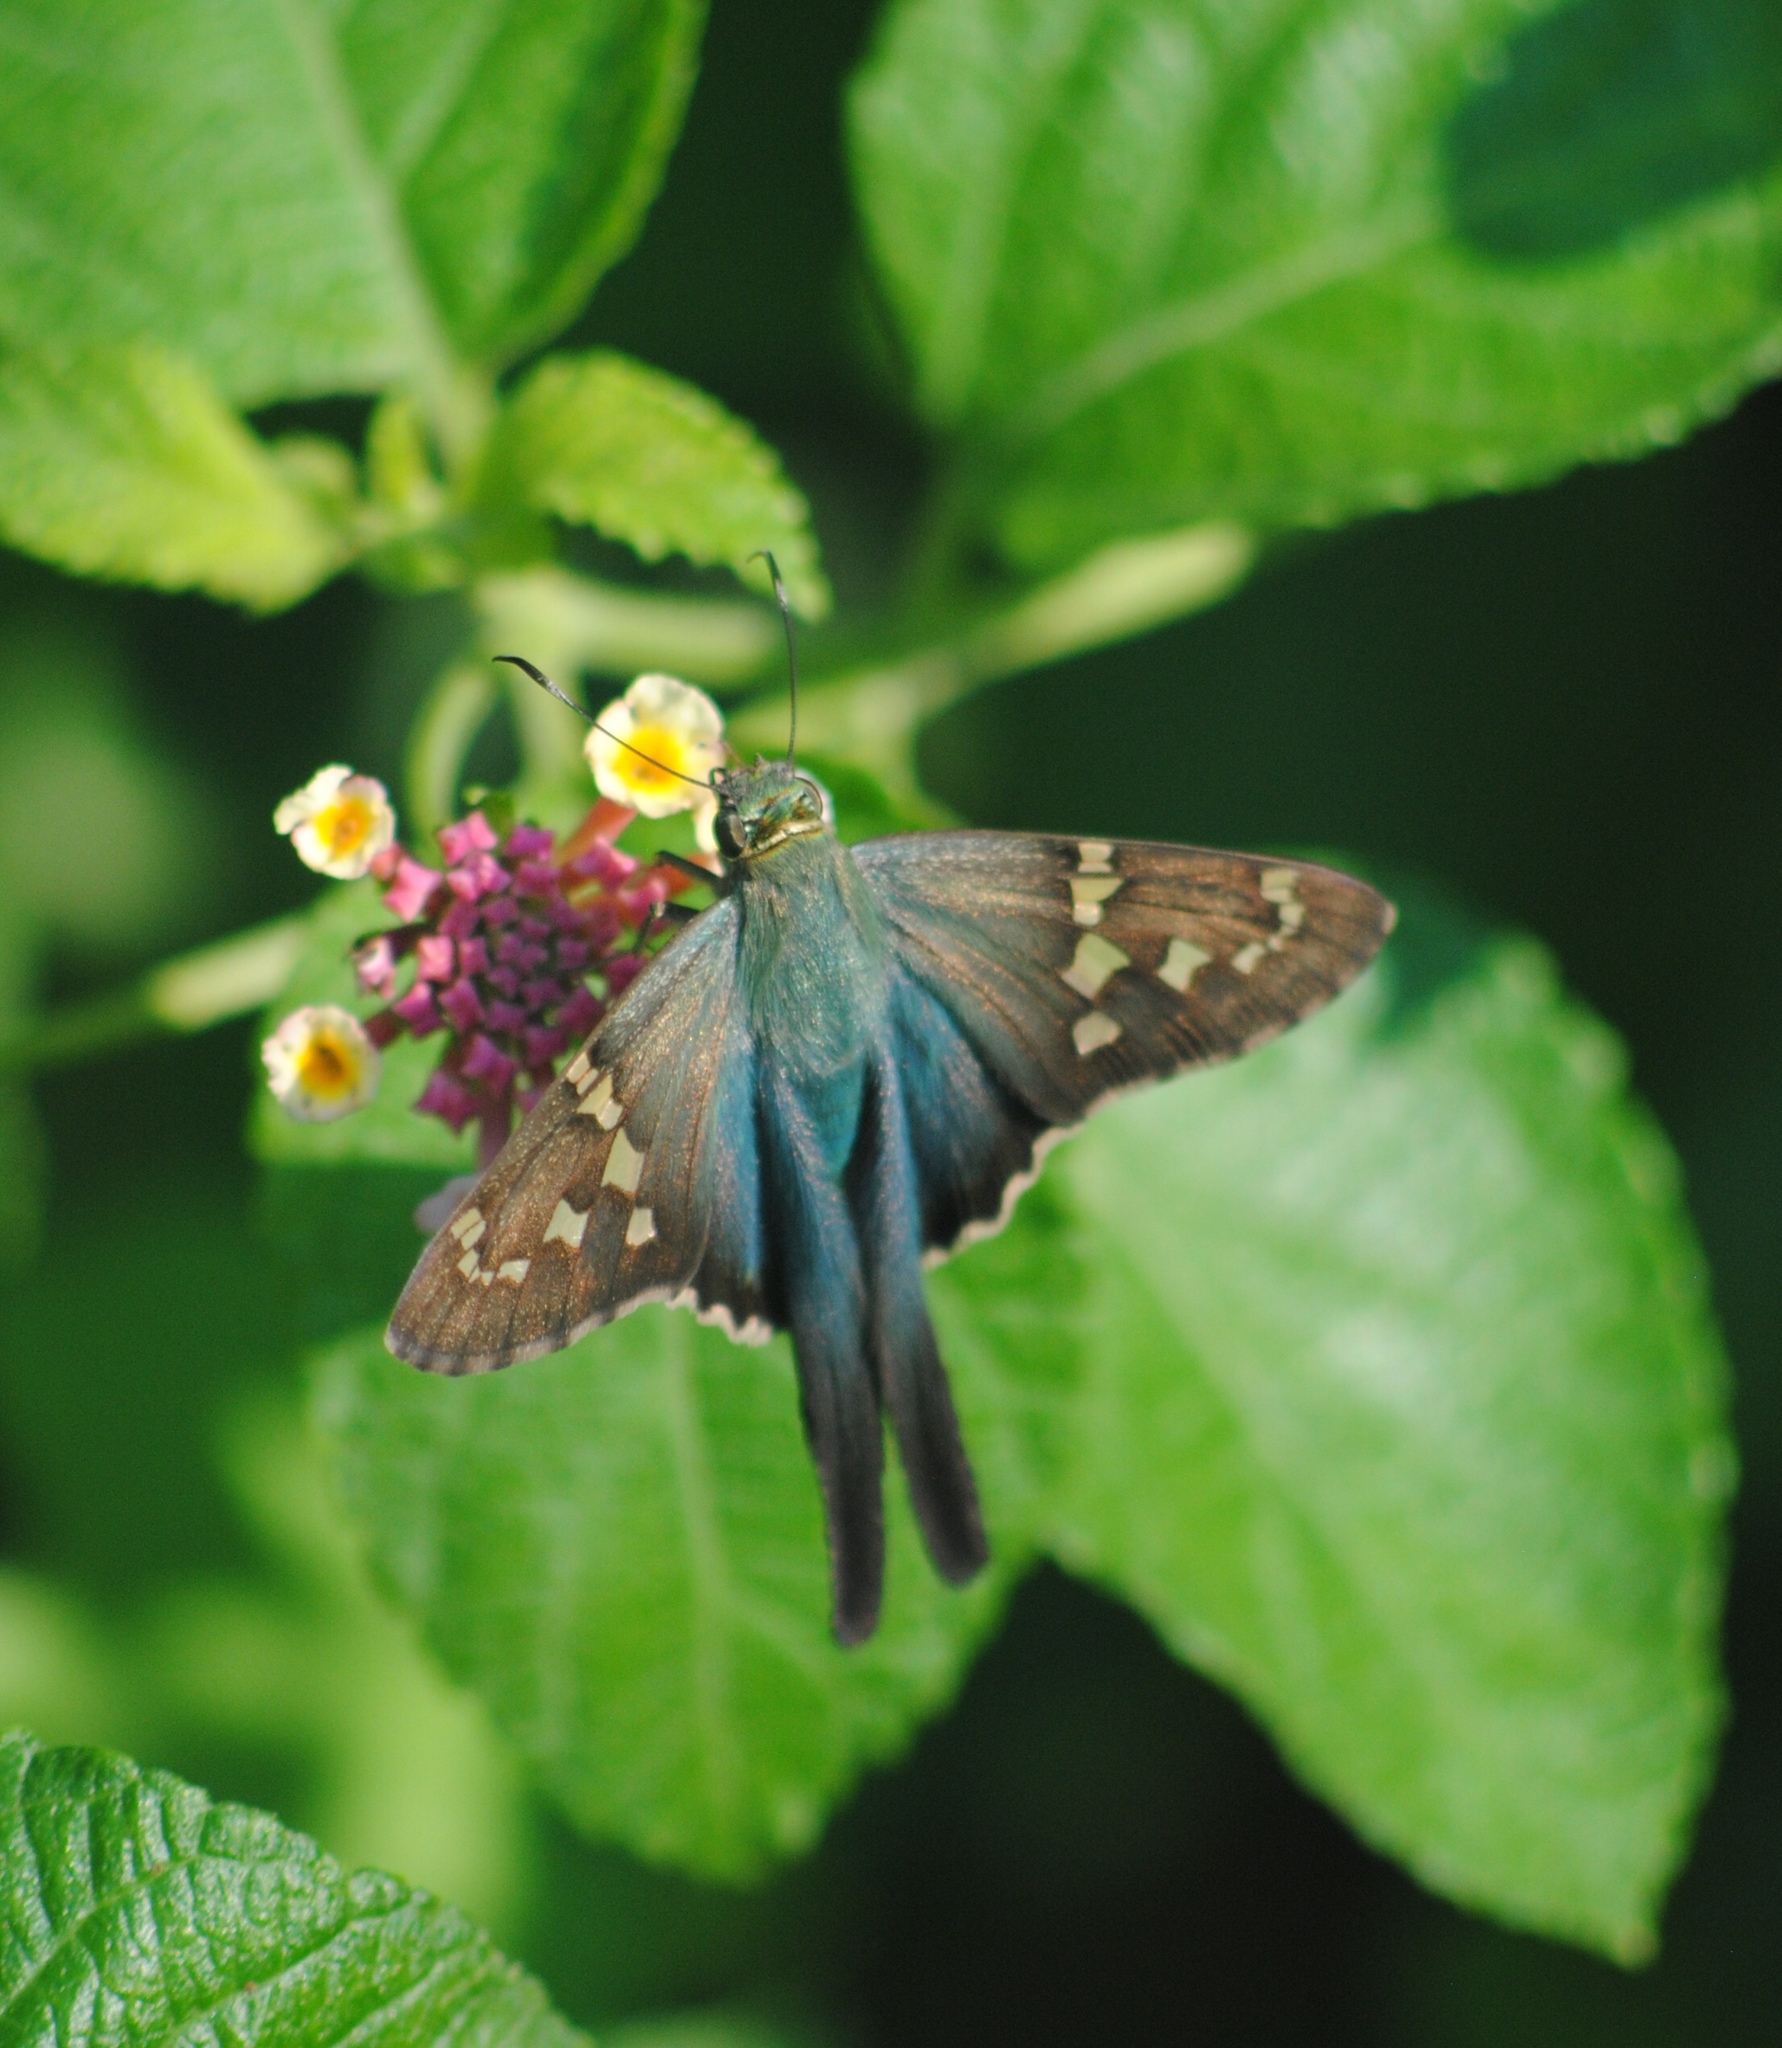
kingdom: Animalia
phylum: Arthropoda
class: Insecta
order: Lepidoptera
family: Hesperiidae
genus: Urbanus
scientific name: Urbanus proteus
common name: Long-tailed skipper
